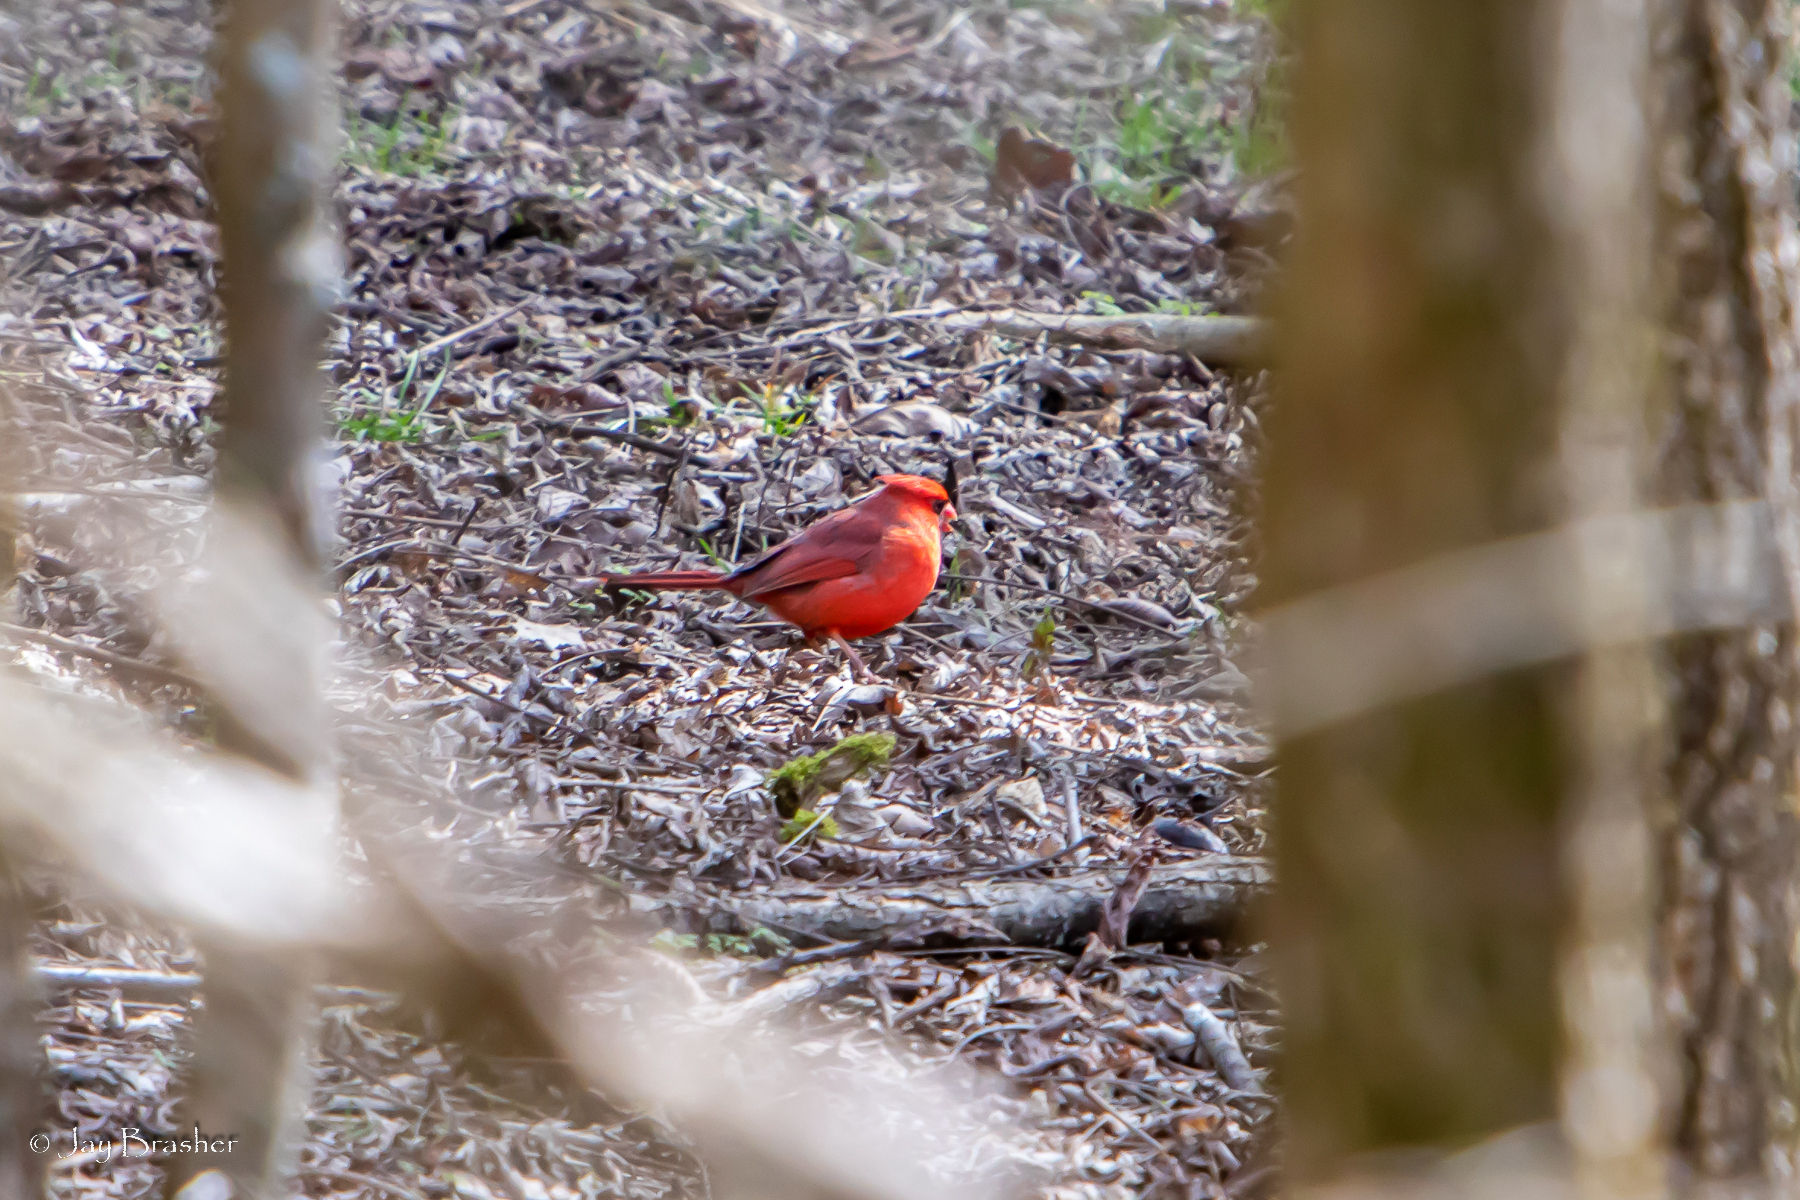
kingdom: Animalia
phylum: Chordata
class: Aves
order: Passeriformes
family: Cardinalidae
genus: Cardinalis
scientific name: Cardinalis cardinalis
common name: Northern cardinal
